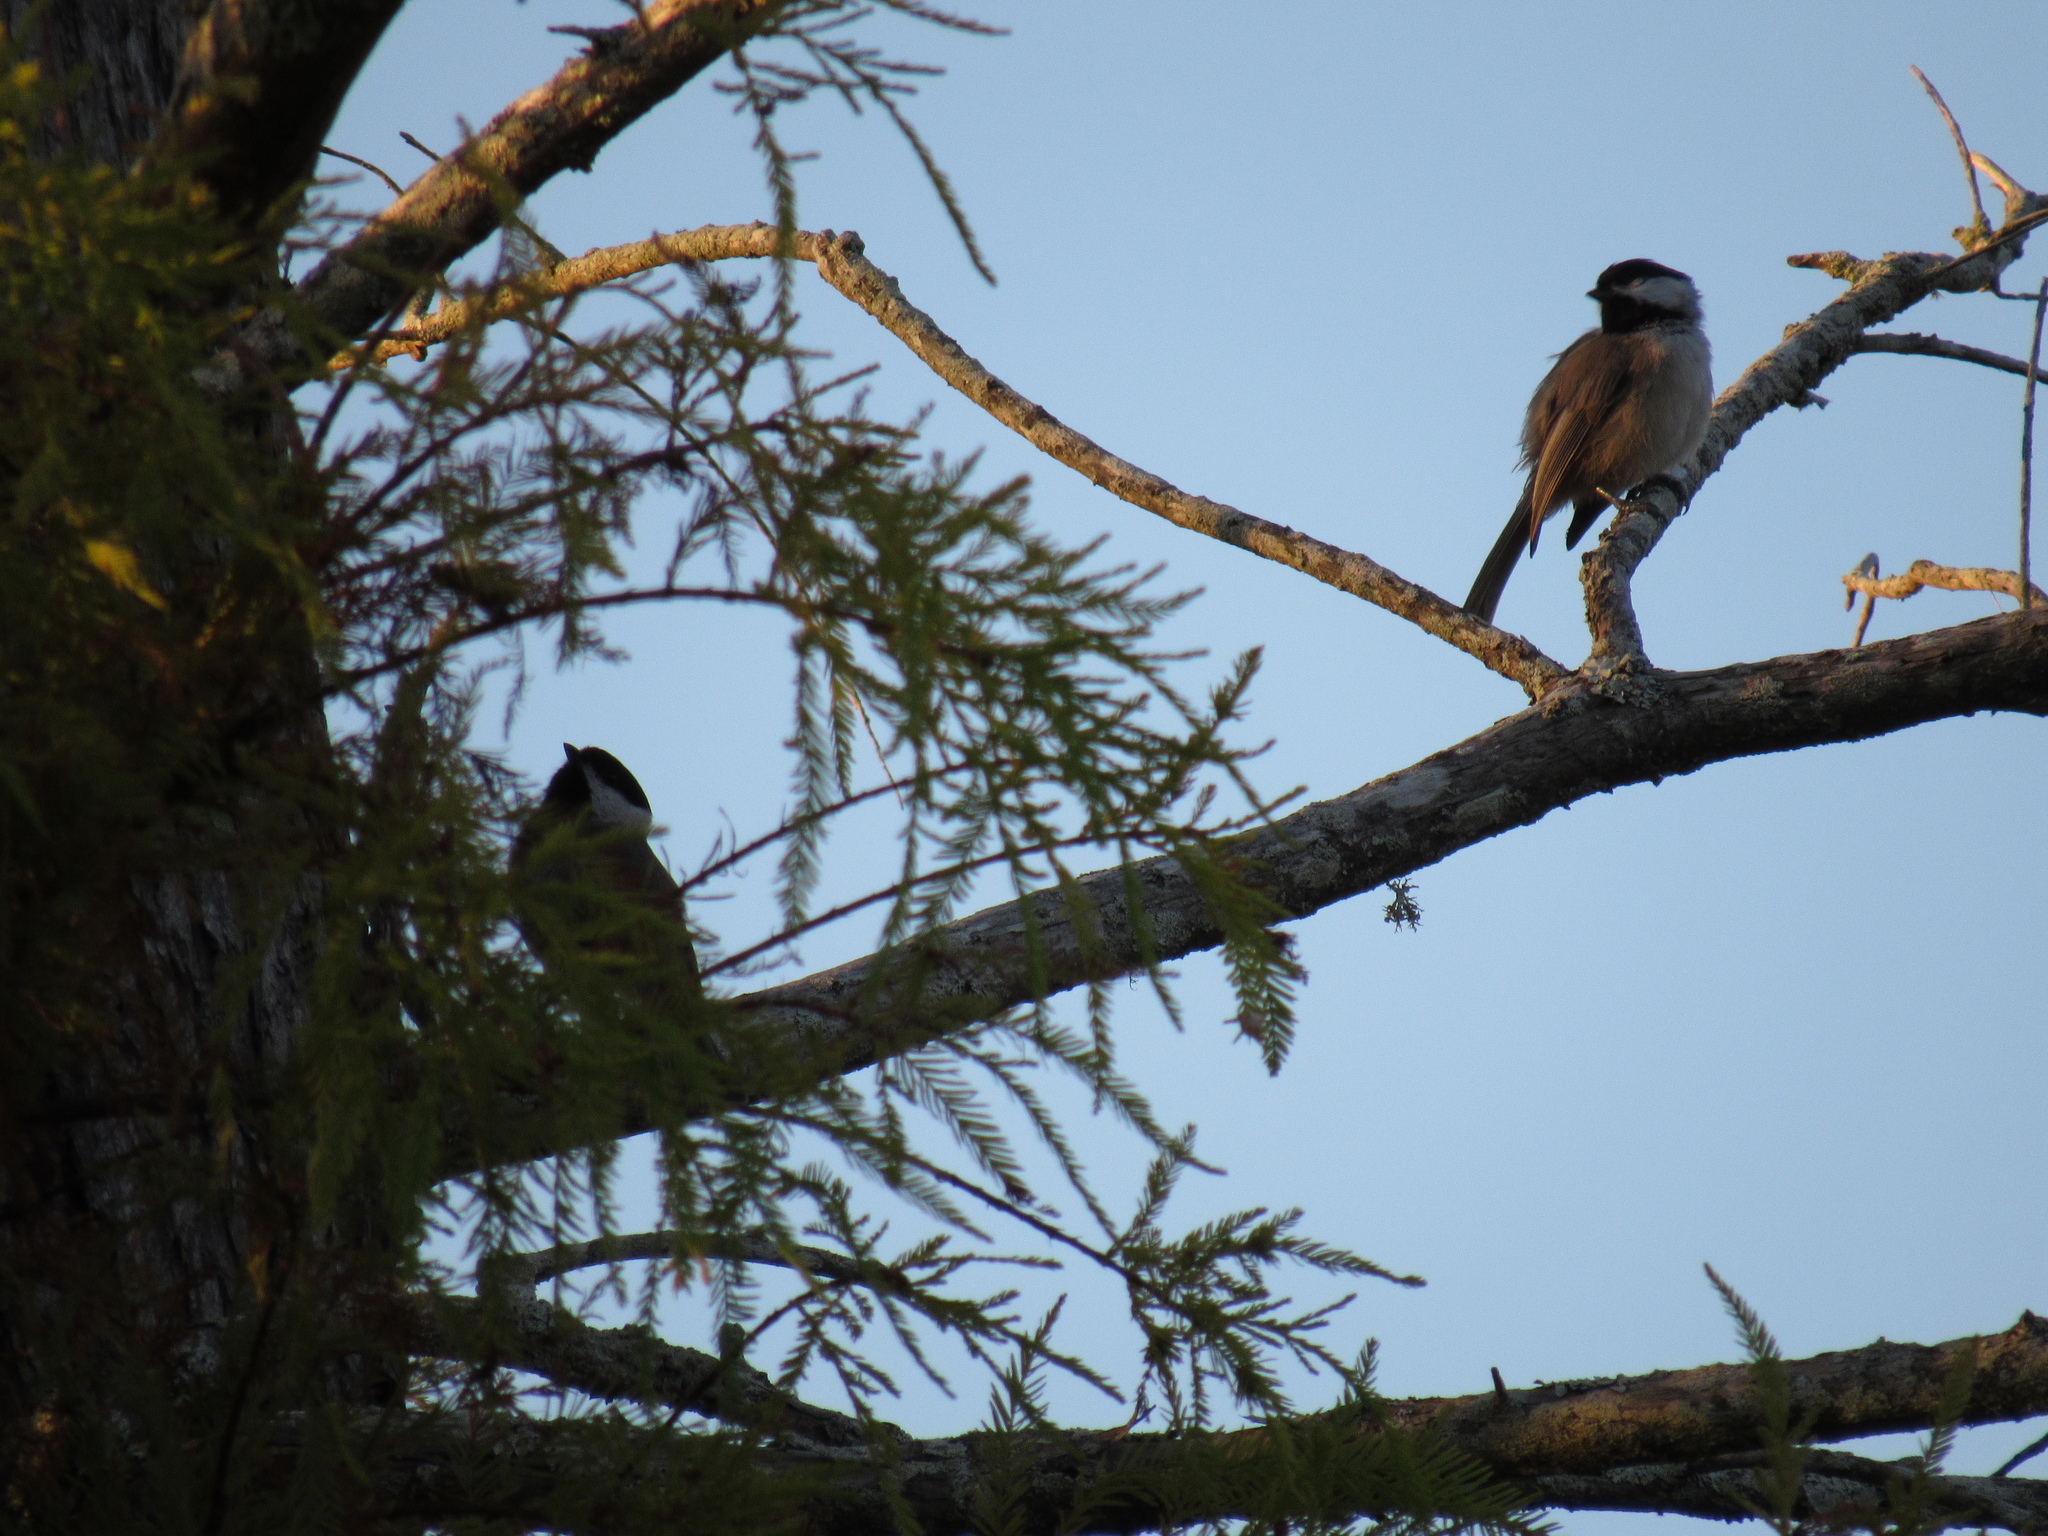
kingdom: Animalia
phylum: Chordata
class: Aves
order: Passeriformes
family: Paridae
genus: Poecile
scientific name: Poecile carolinensis
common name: Carolina chickadee
